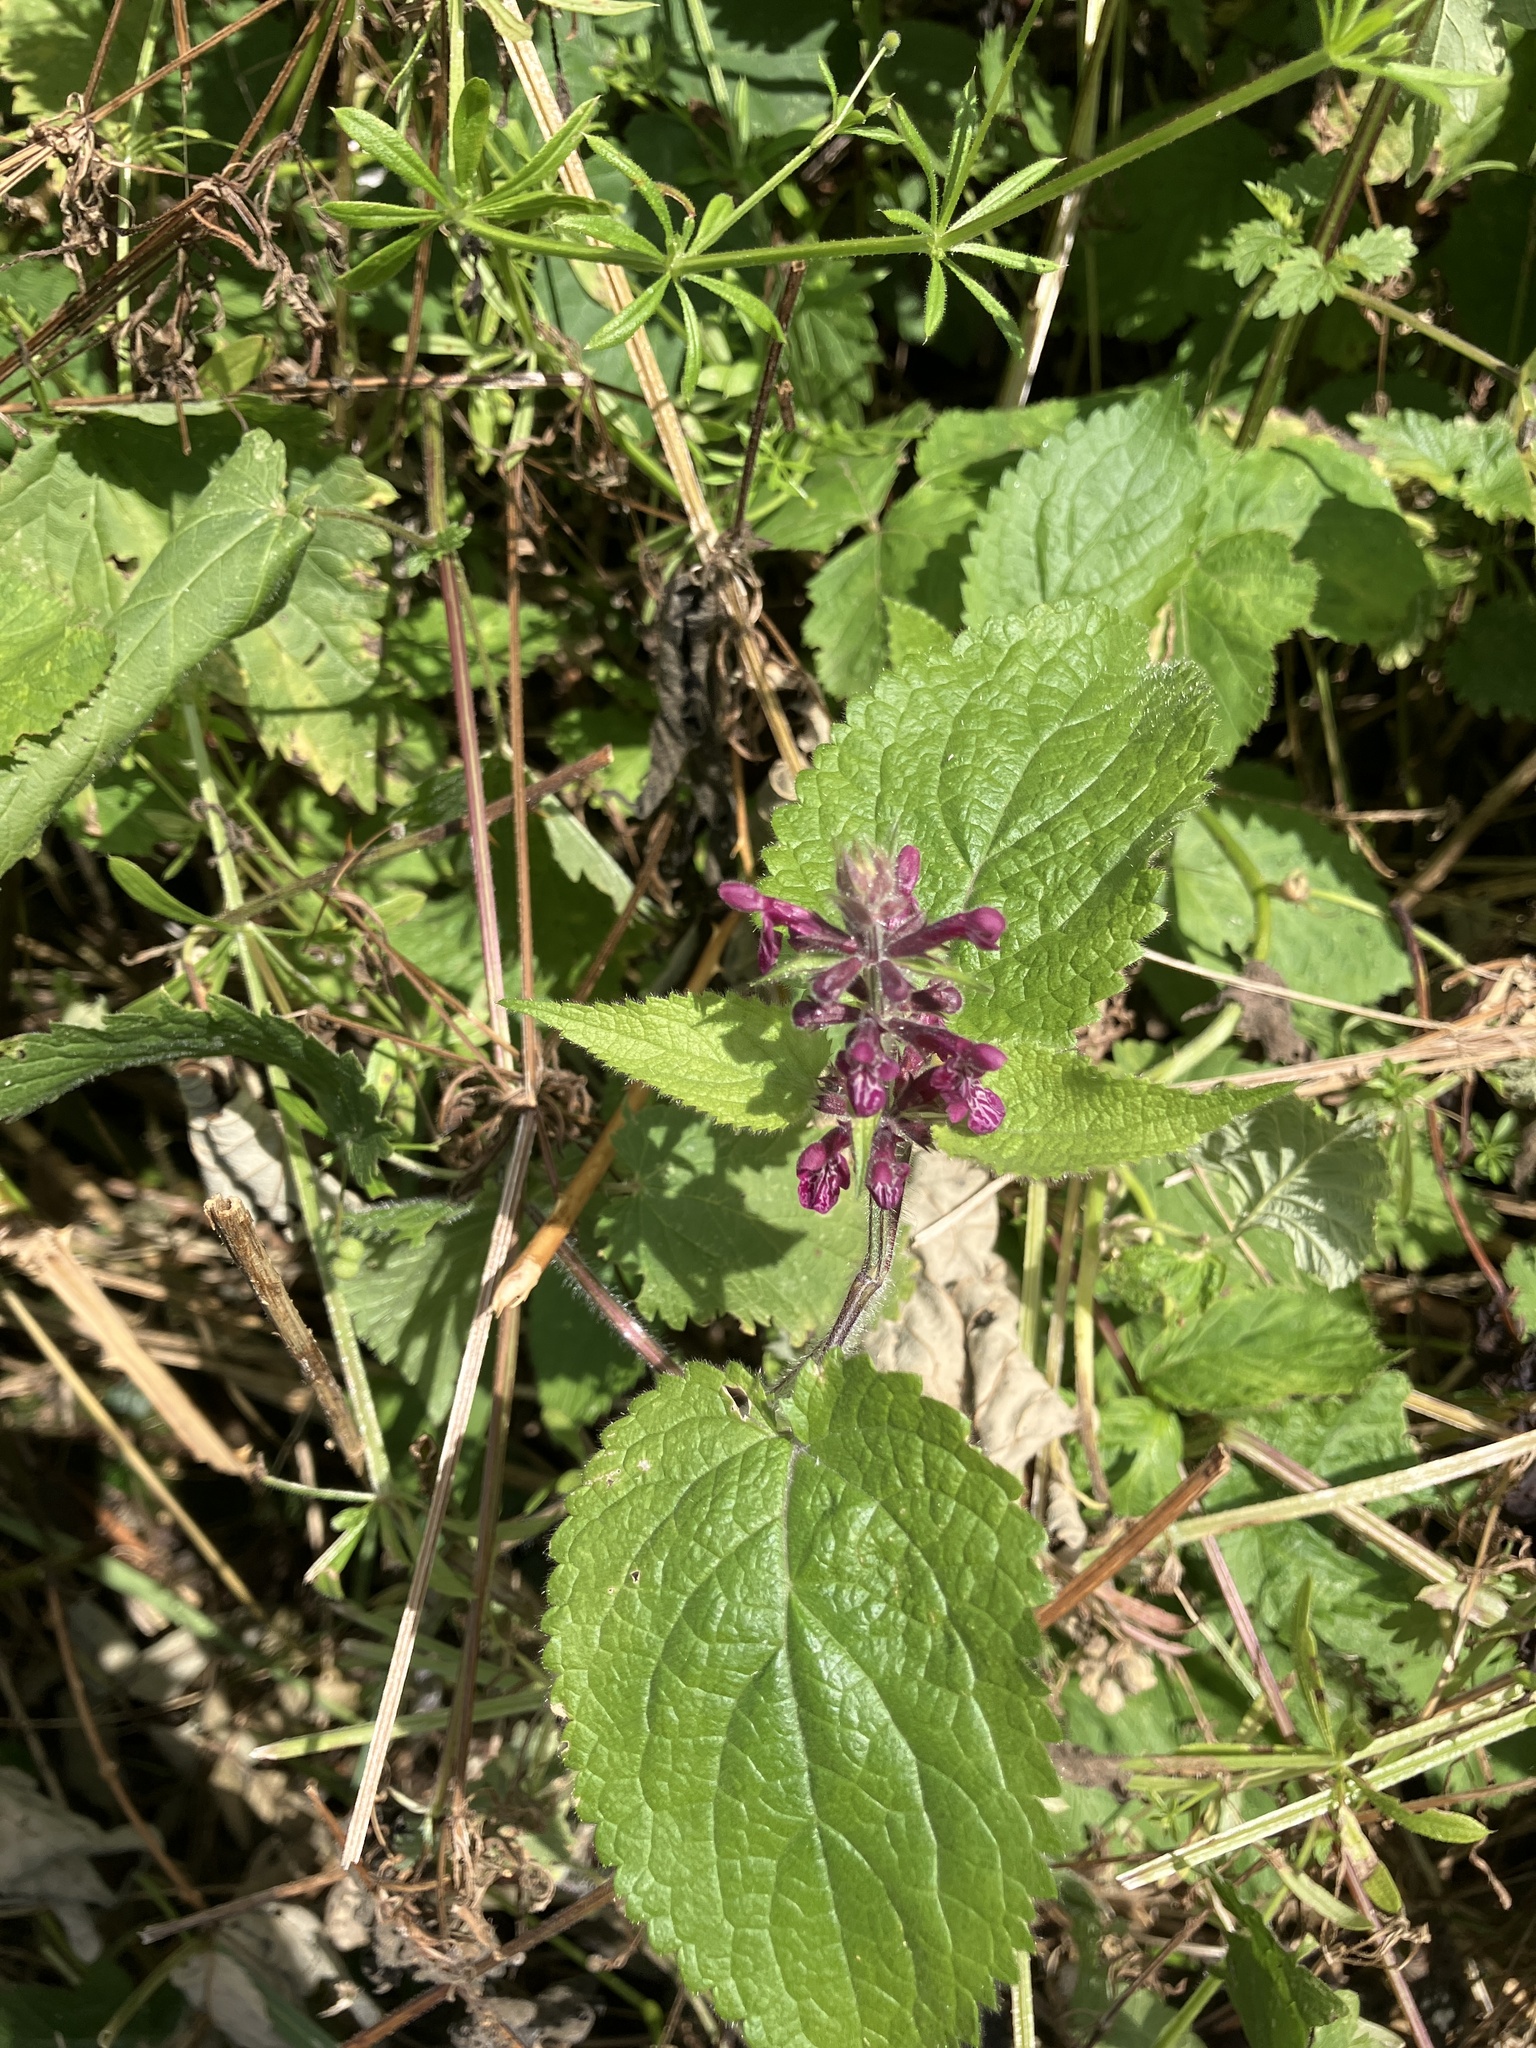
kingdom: Plantae
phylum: Tracheophyta
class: Magnoliopsida
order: Lamiales
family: Lamiaceae
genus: Stachys
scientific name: Stachys sylvatica
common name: Hedge woundwort
